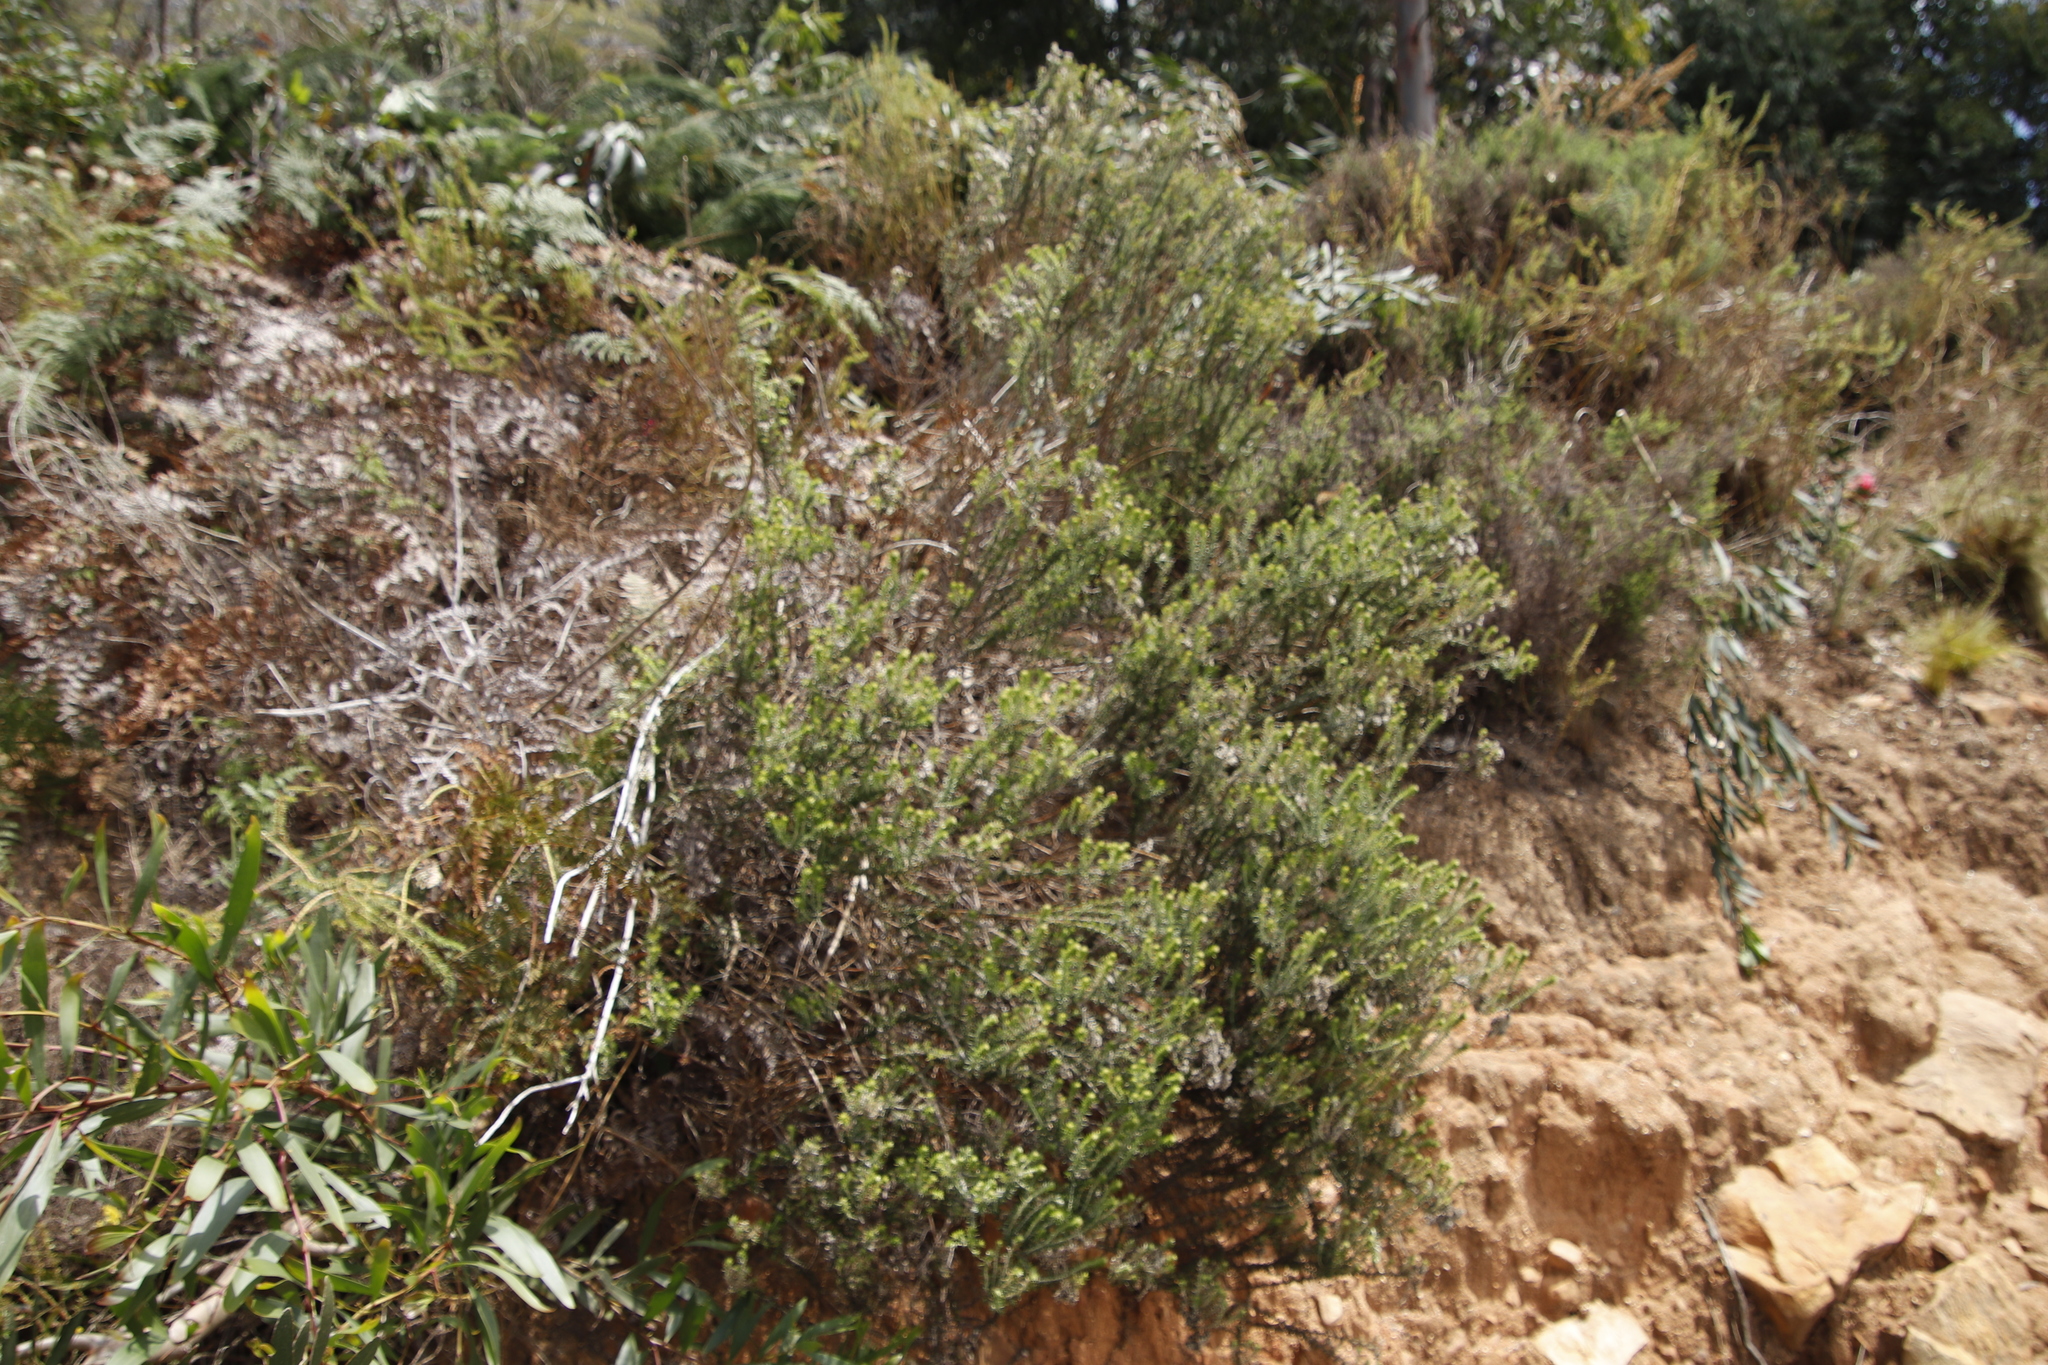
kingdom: Plantae
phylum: Tracheophyta
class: Magnoliopsida
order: Asterales
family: Asteraceae
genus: Metalasia
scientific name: Metalasia densa
